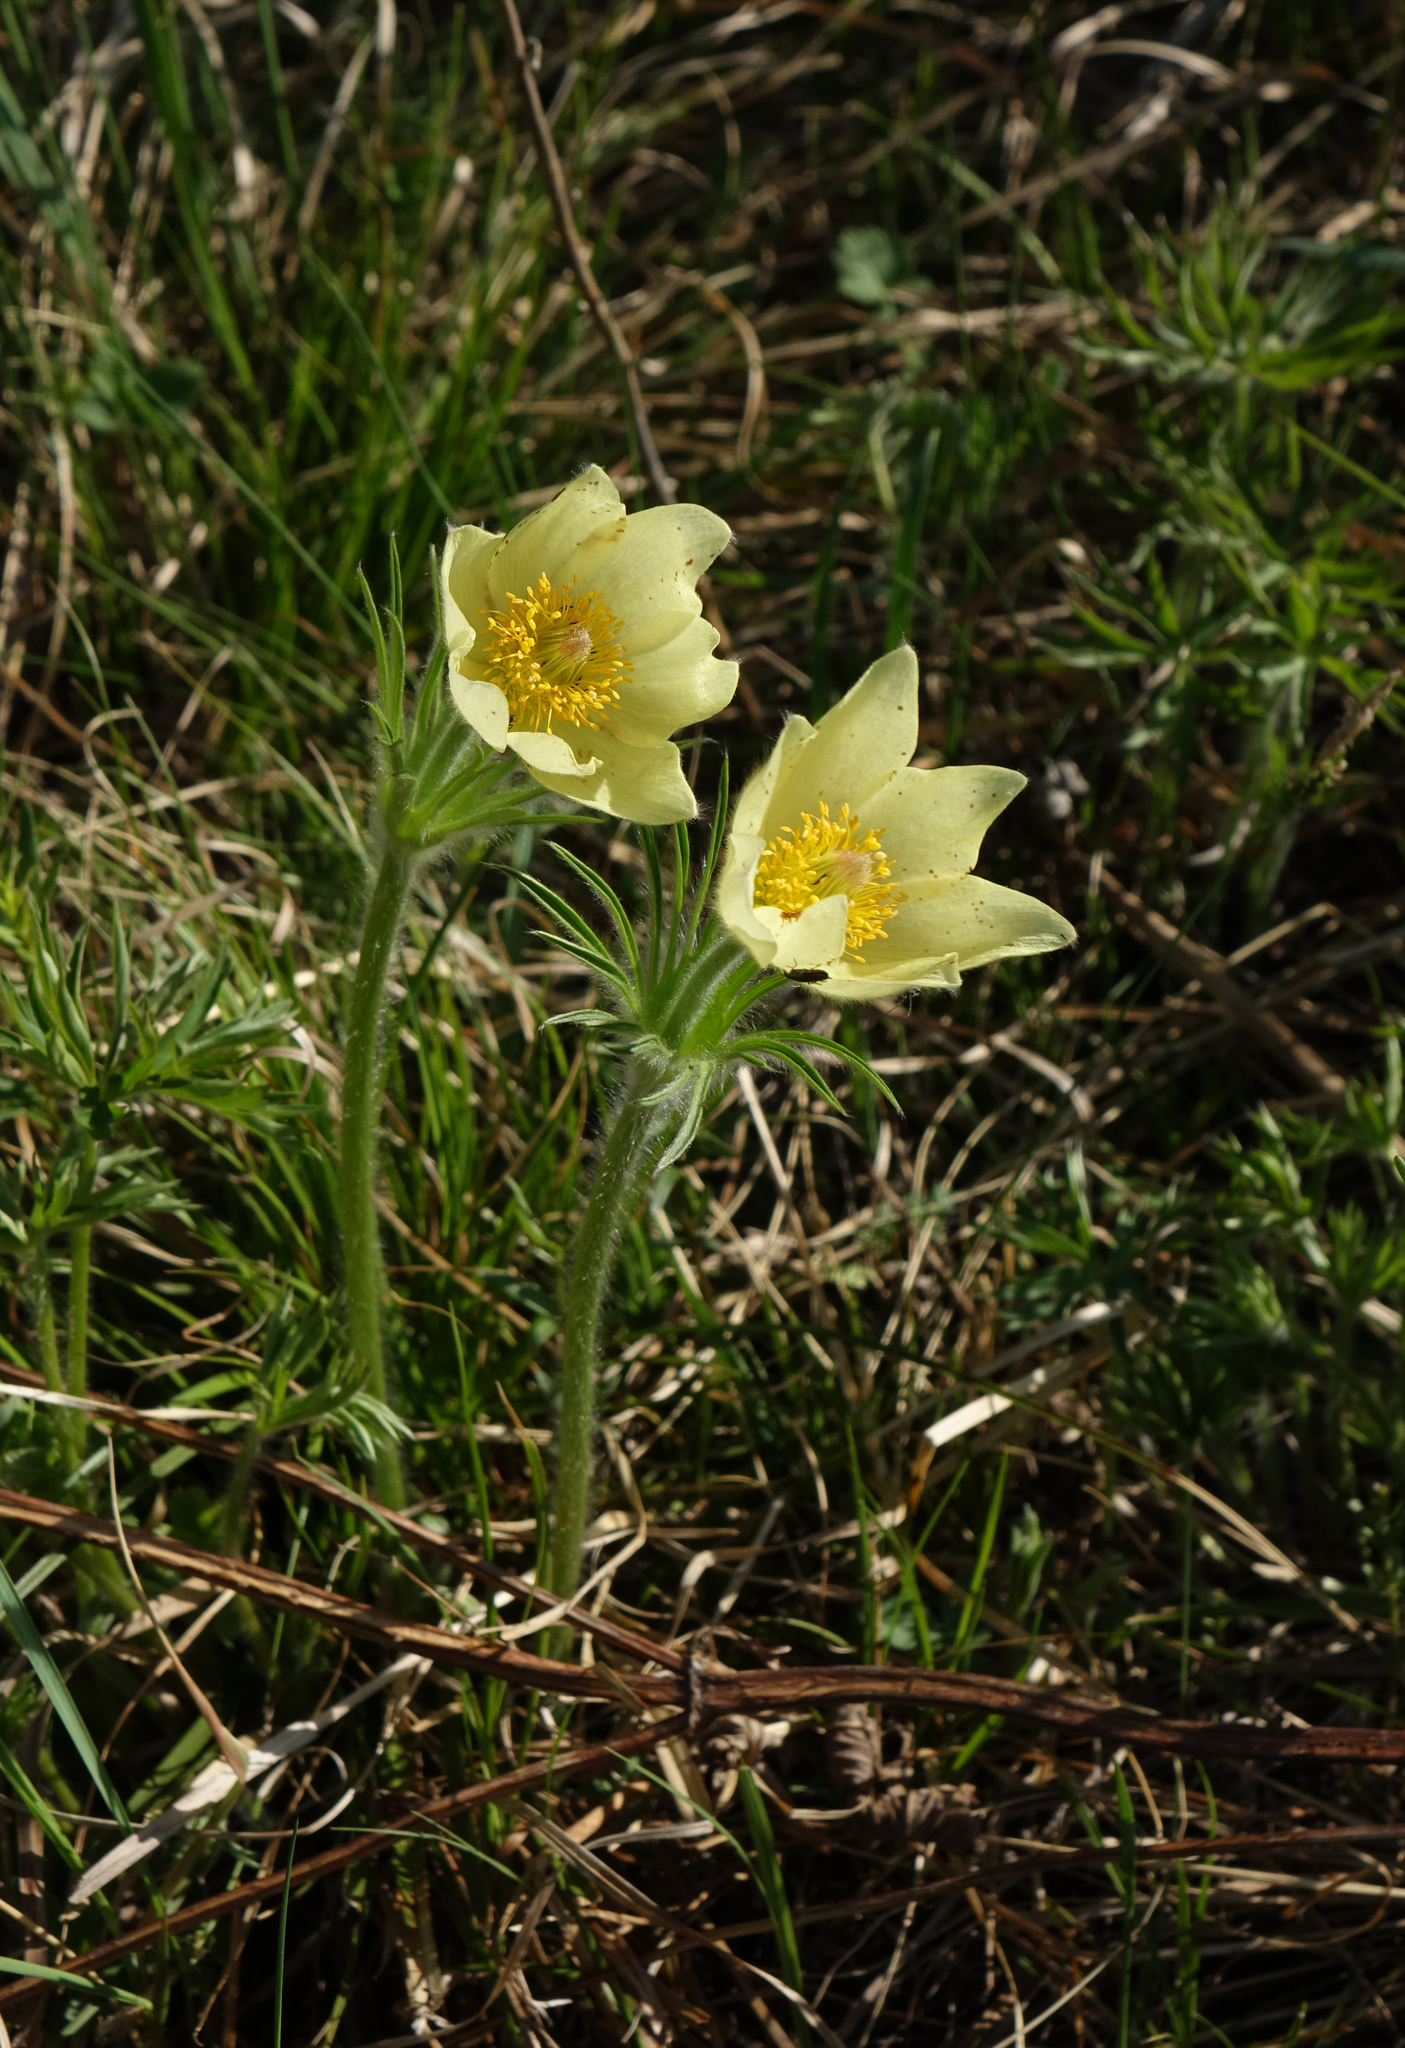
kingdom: Plantae
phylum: Tracheophyta
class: Magnoliopsida
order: Ranunculales
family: Ranunculaceae
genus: Pulsatilla
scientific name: Pulsatilla patens
